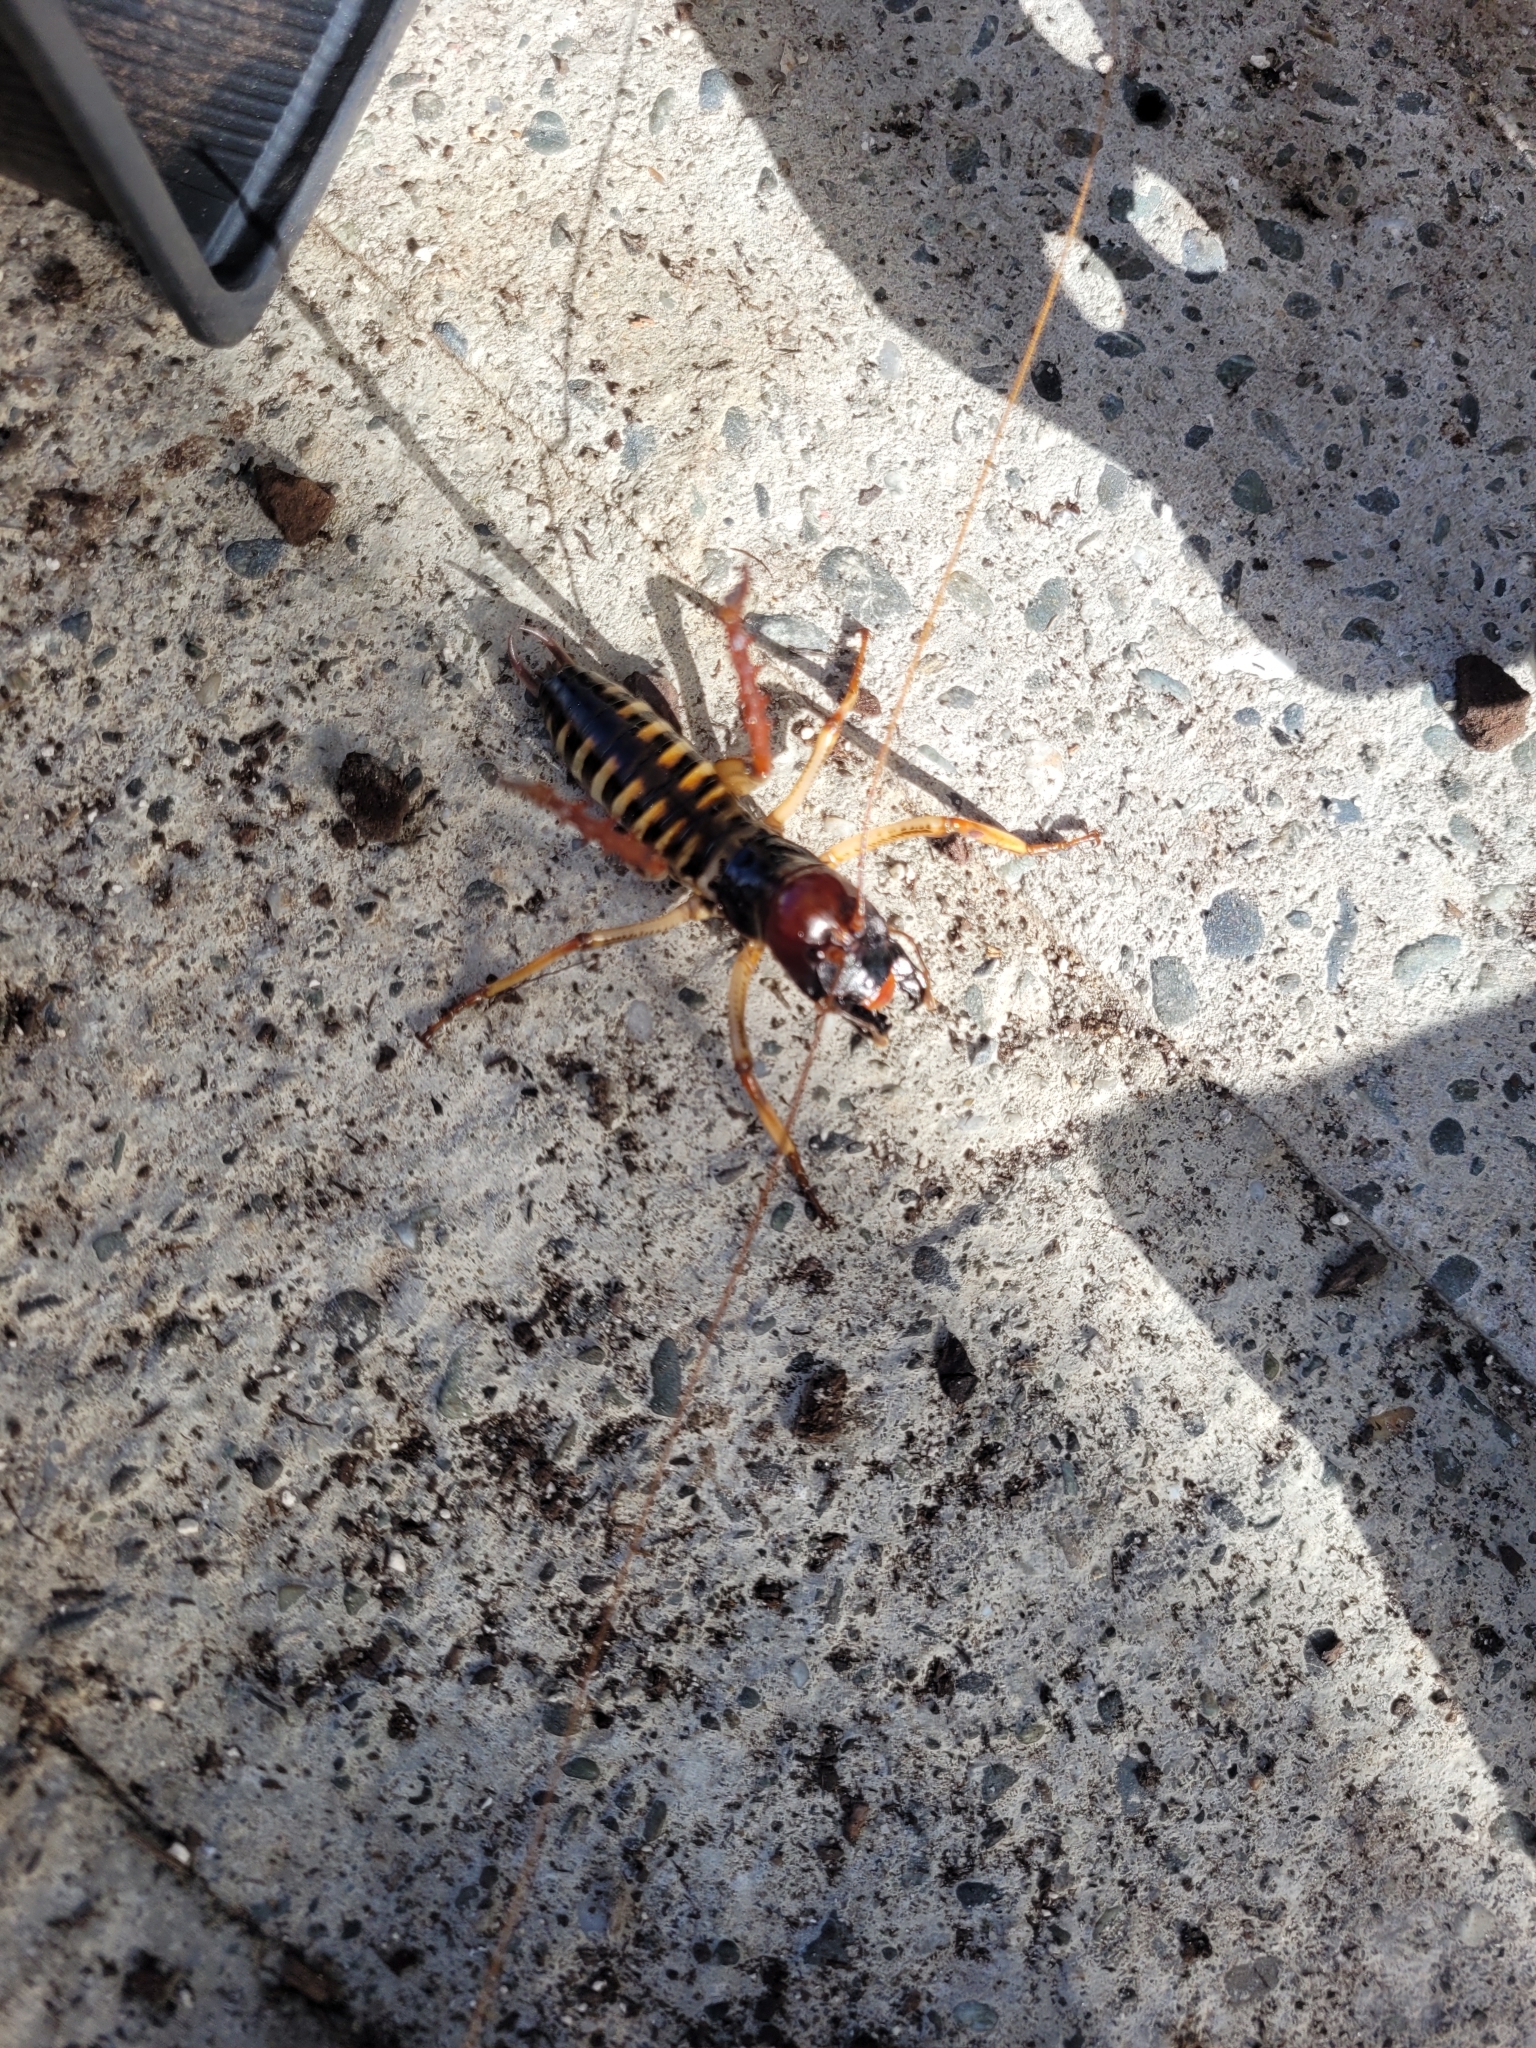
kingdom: Animalia
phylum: Arthropoda
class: Insecta
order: Orthoptera
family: Anostostomatidae
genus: Hemideina
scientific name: Hemideina crassidens
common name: Wellington tree weta
